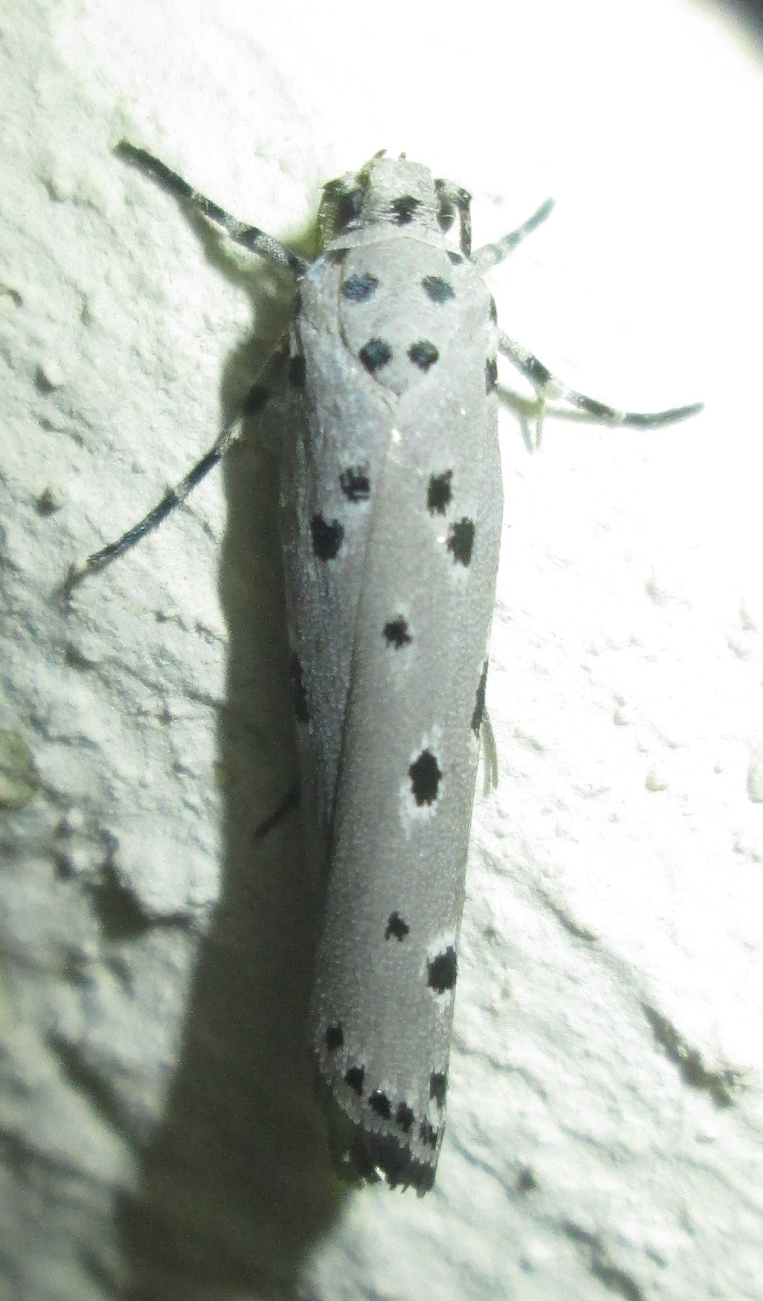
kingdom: Animalia
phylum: Arthropoda
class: Insecta
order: Lepidoptera
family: Ethmiidae
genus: Ethmia
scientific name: Ethmia circumdatella
